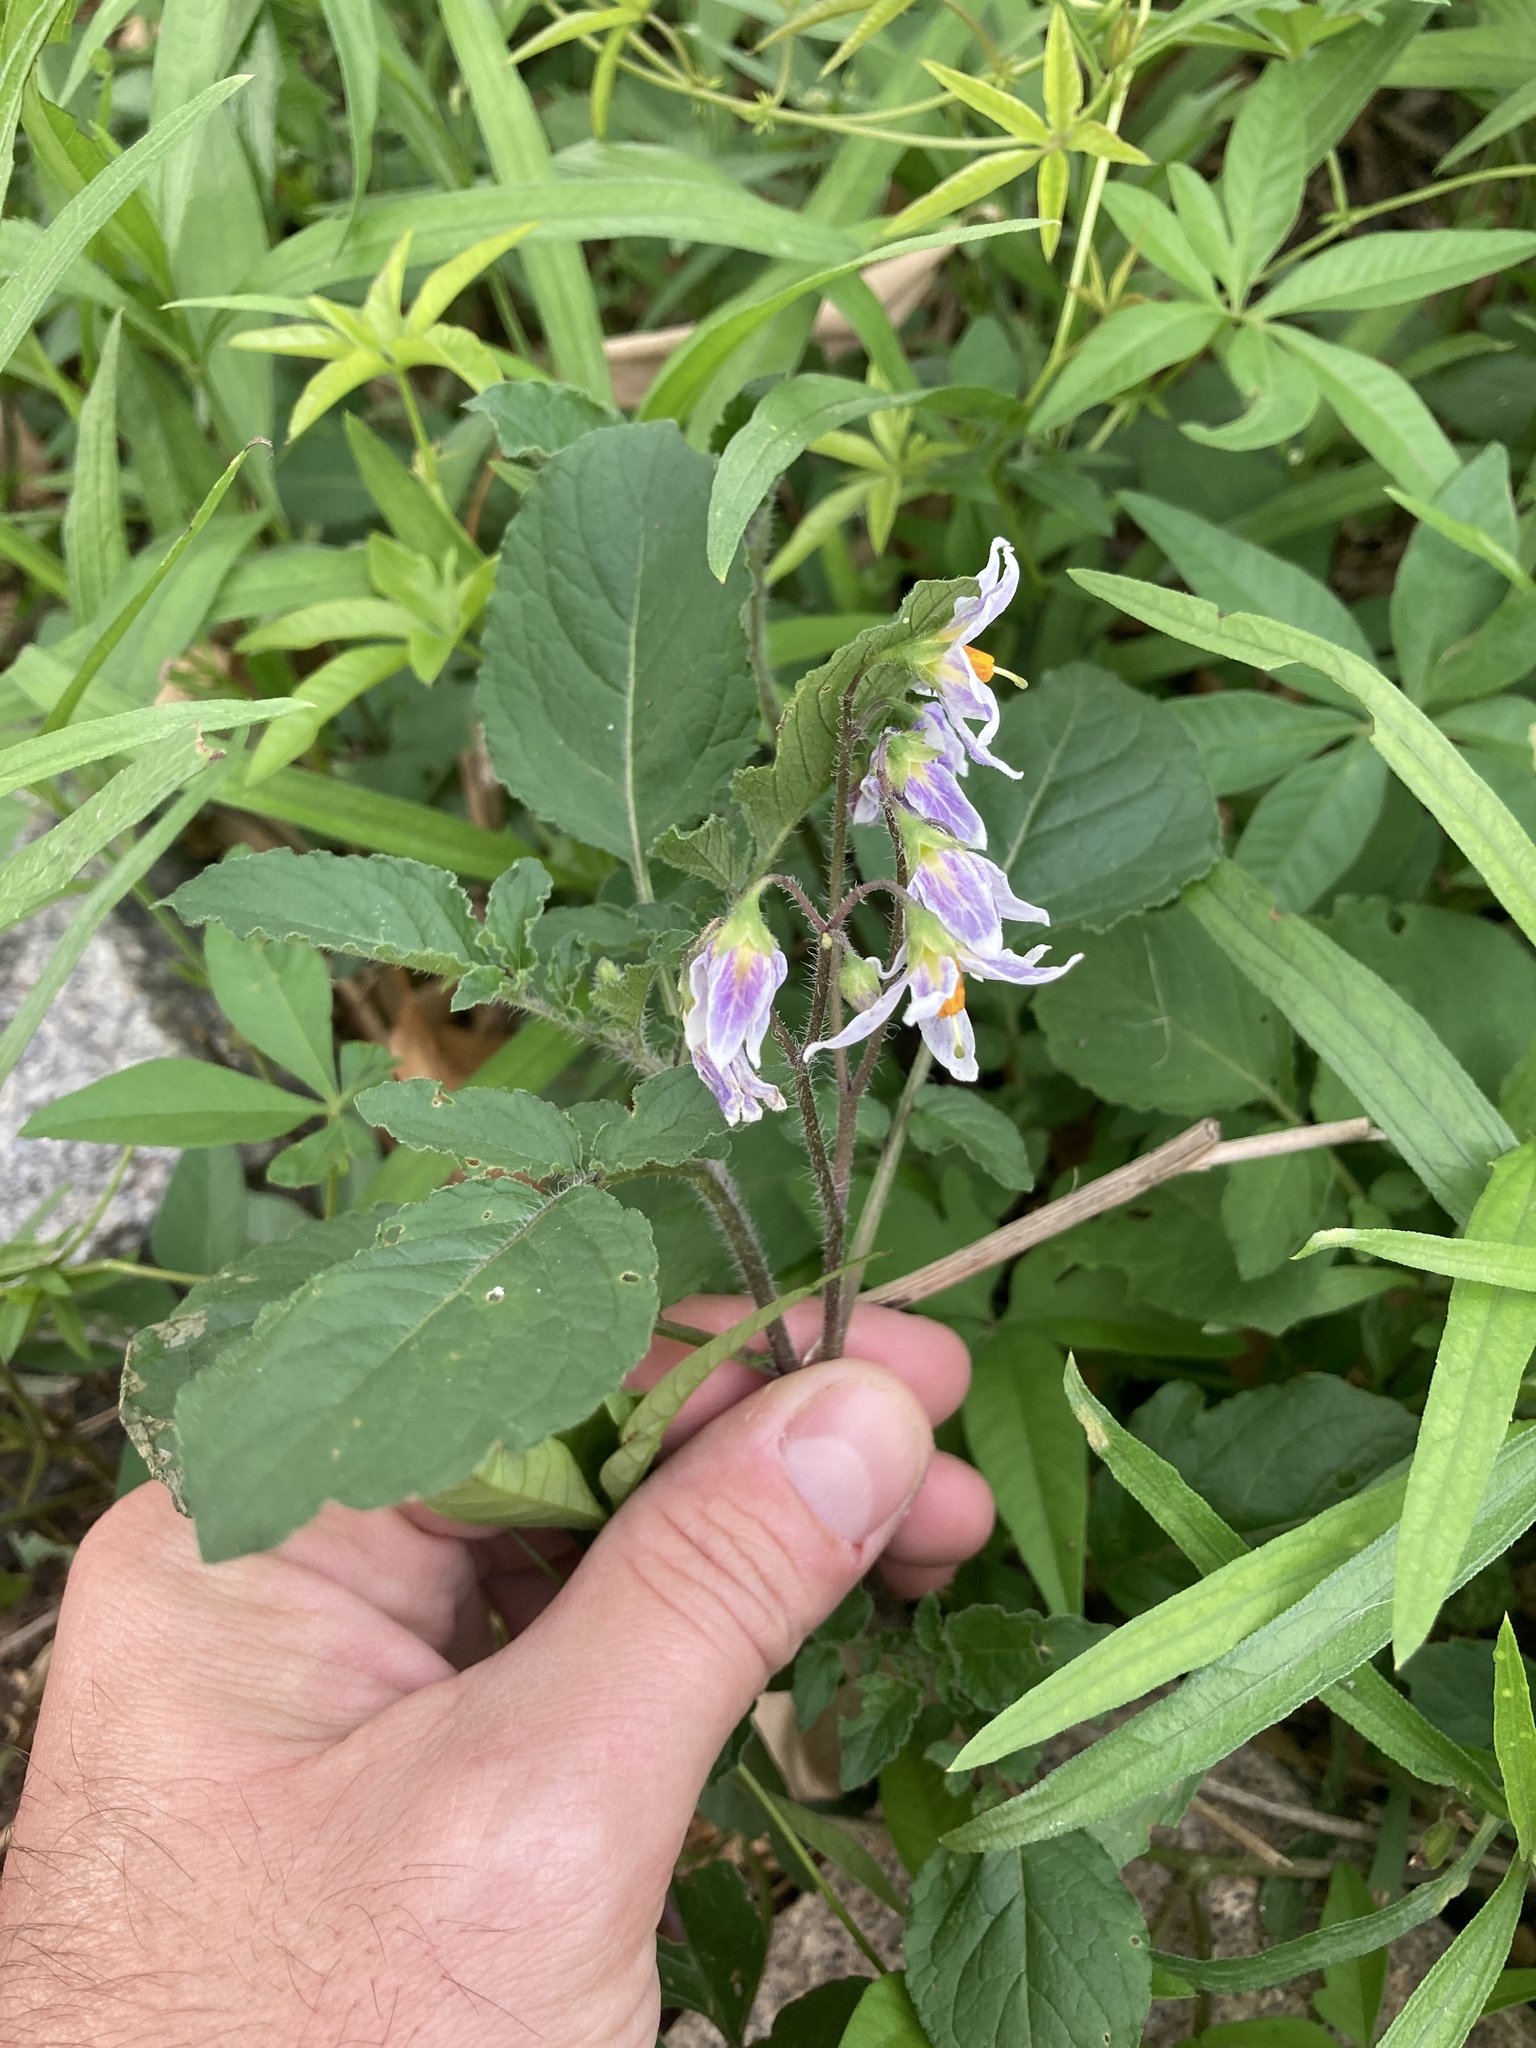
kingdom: Plantae
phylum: Tracheophyta
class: Magnoliopsida
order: Solanales
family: Solanaceae
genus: Solanum
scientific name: Solanum commersonii
